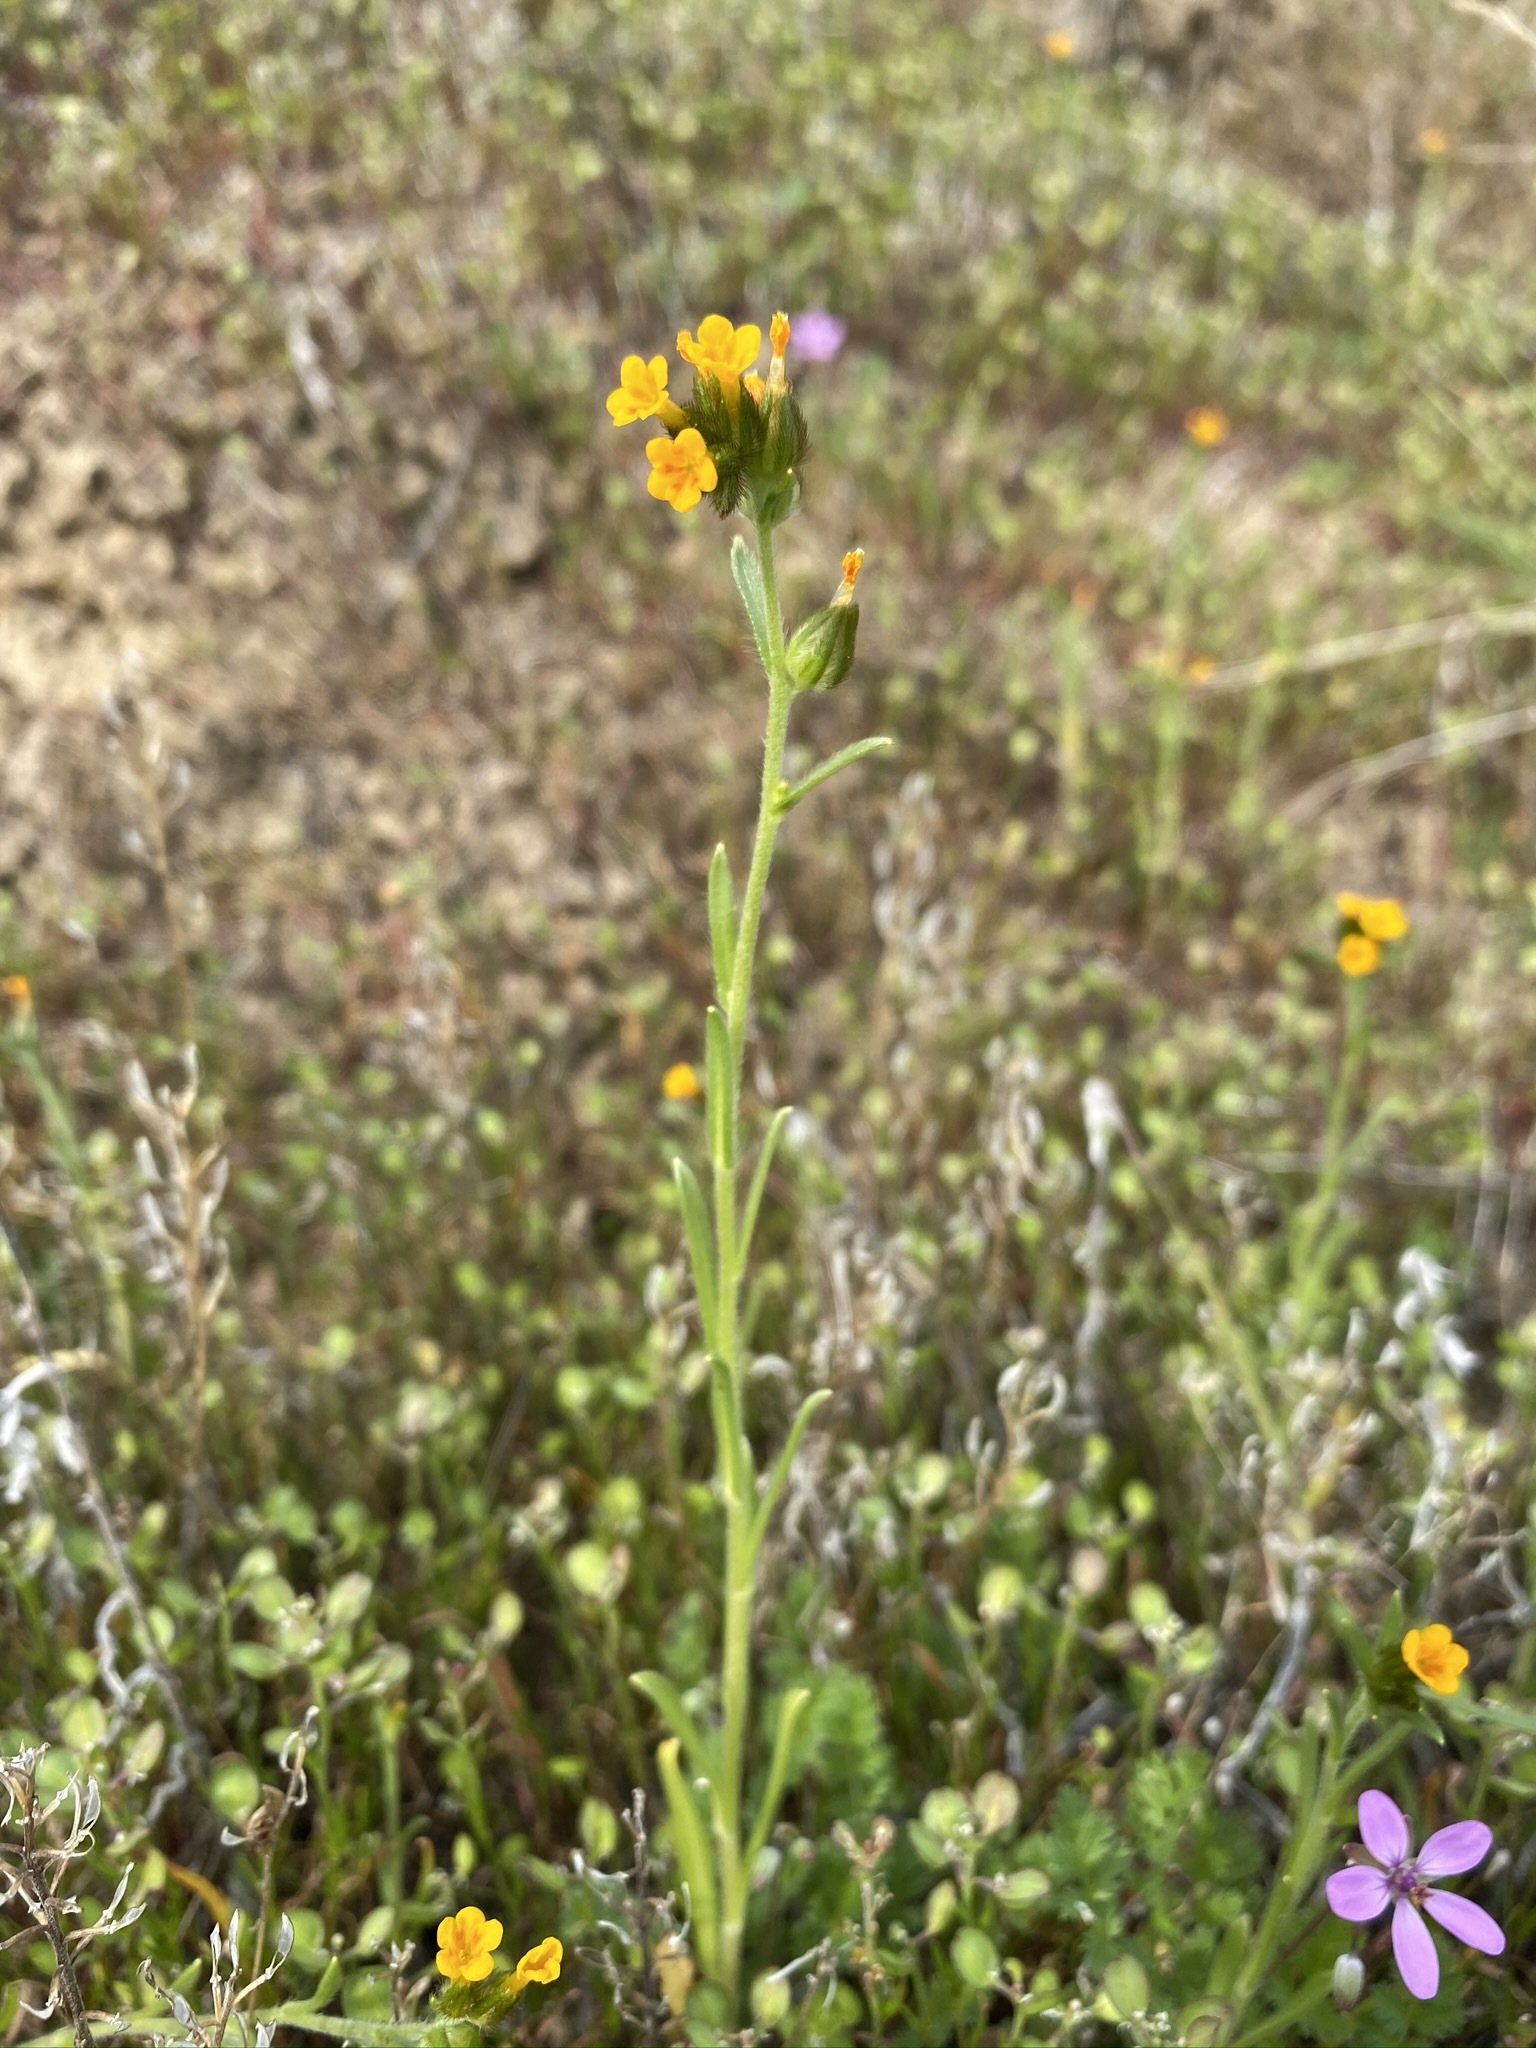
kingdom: Plantae
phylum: Tracheophyta
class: Magnoliopsida
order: Boraginales
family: Boraginaceae
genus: Amsinckia
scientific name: Amsinckia lycopsoides
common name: Tarweed fiddleneck
